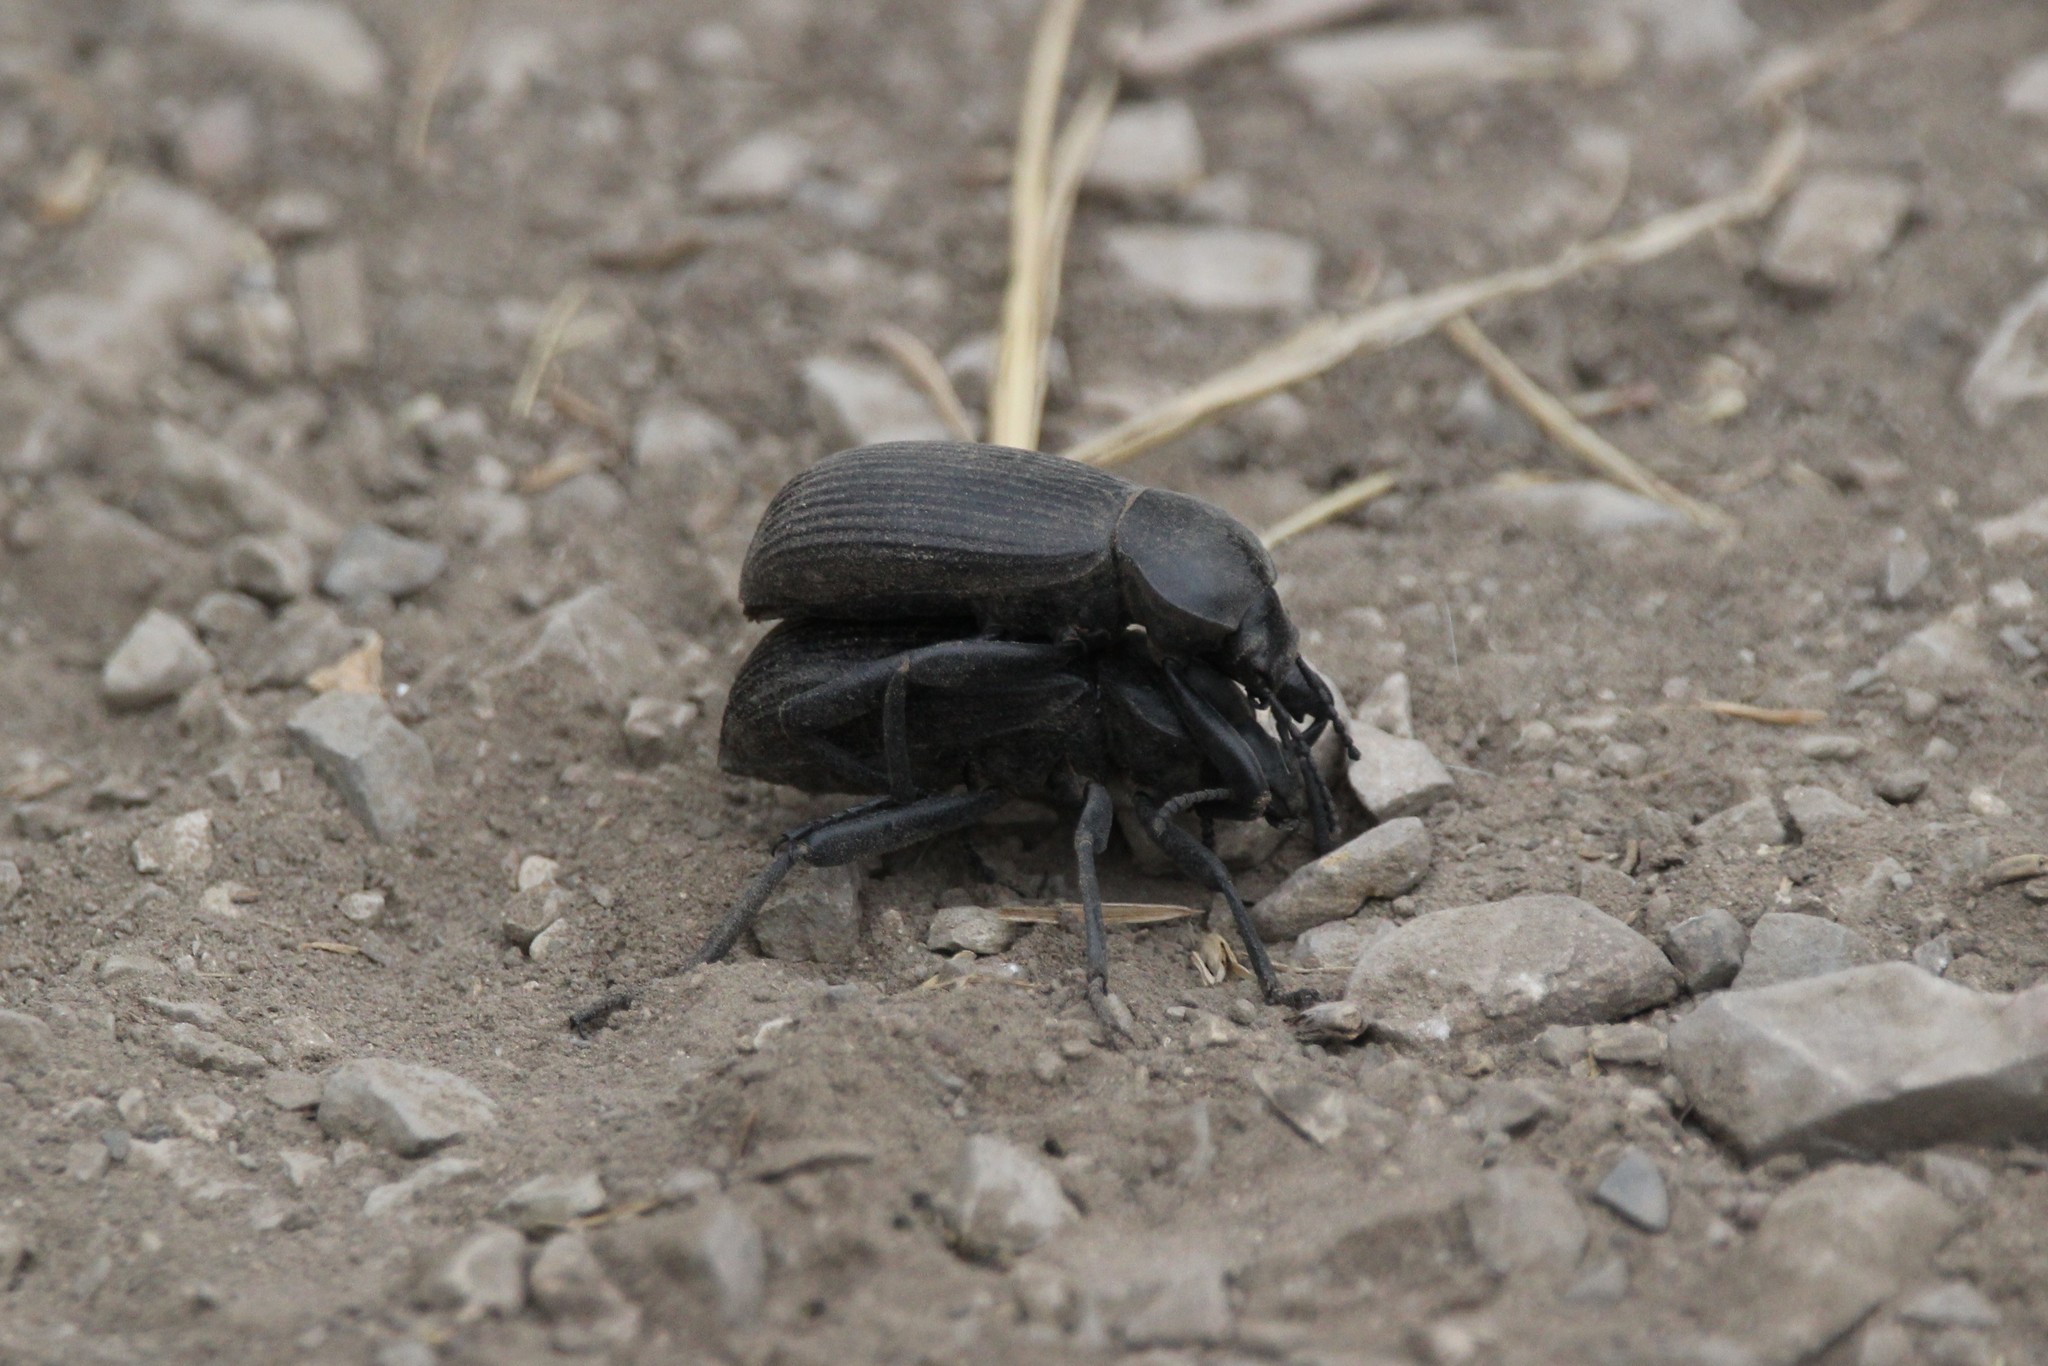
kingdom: Animalia
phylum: Arthropoda
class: Insecta
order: Coleoptera
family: Tenebrionidae
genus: Eleodes
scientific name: Eleodes obscura
